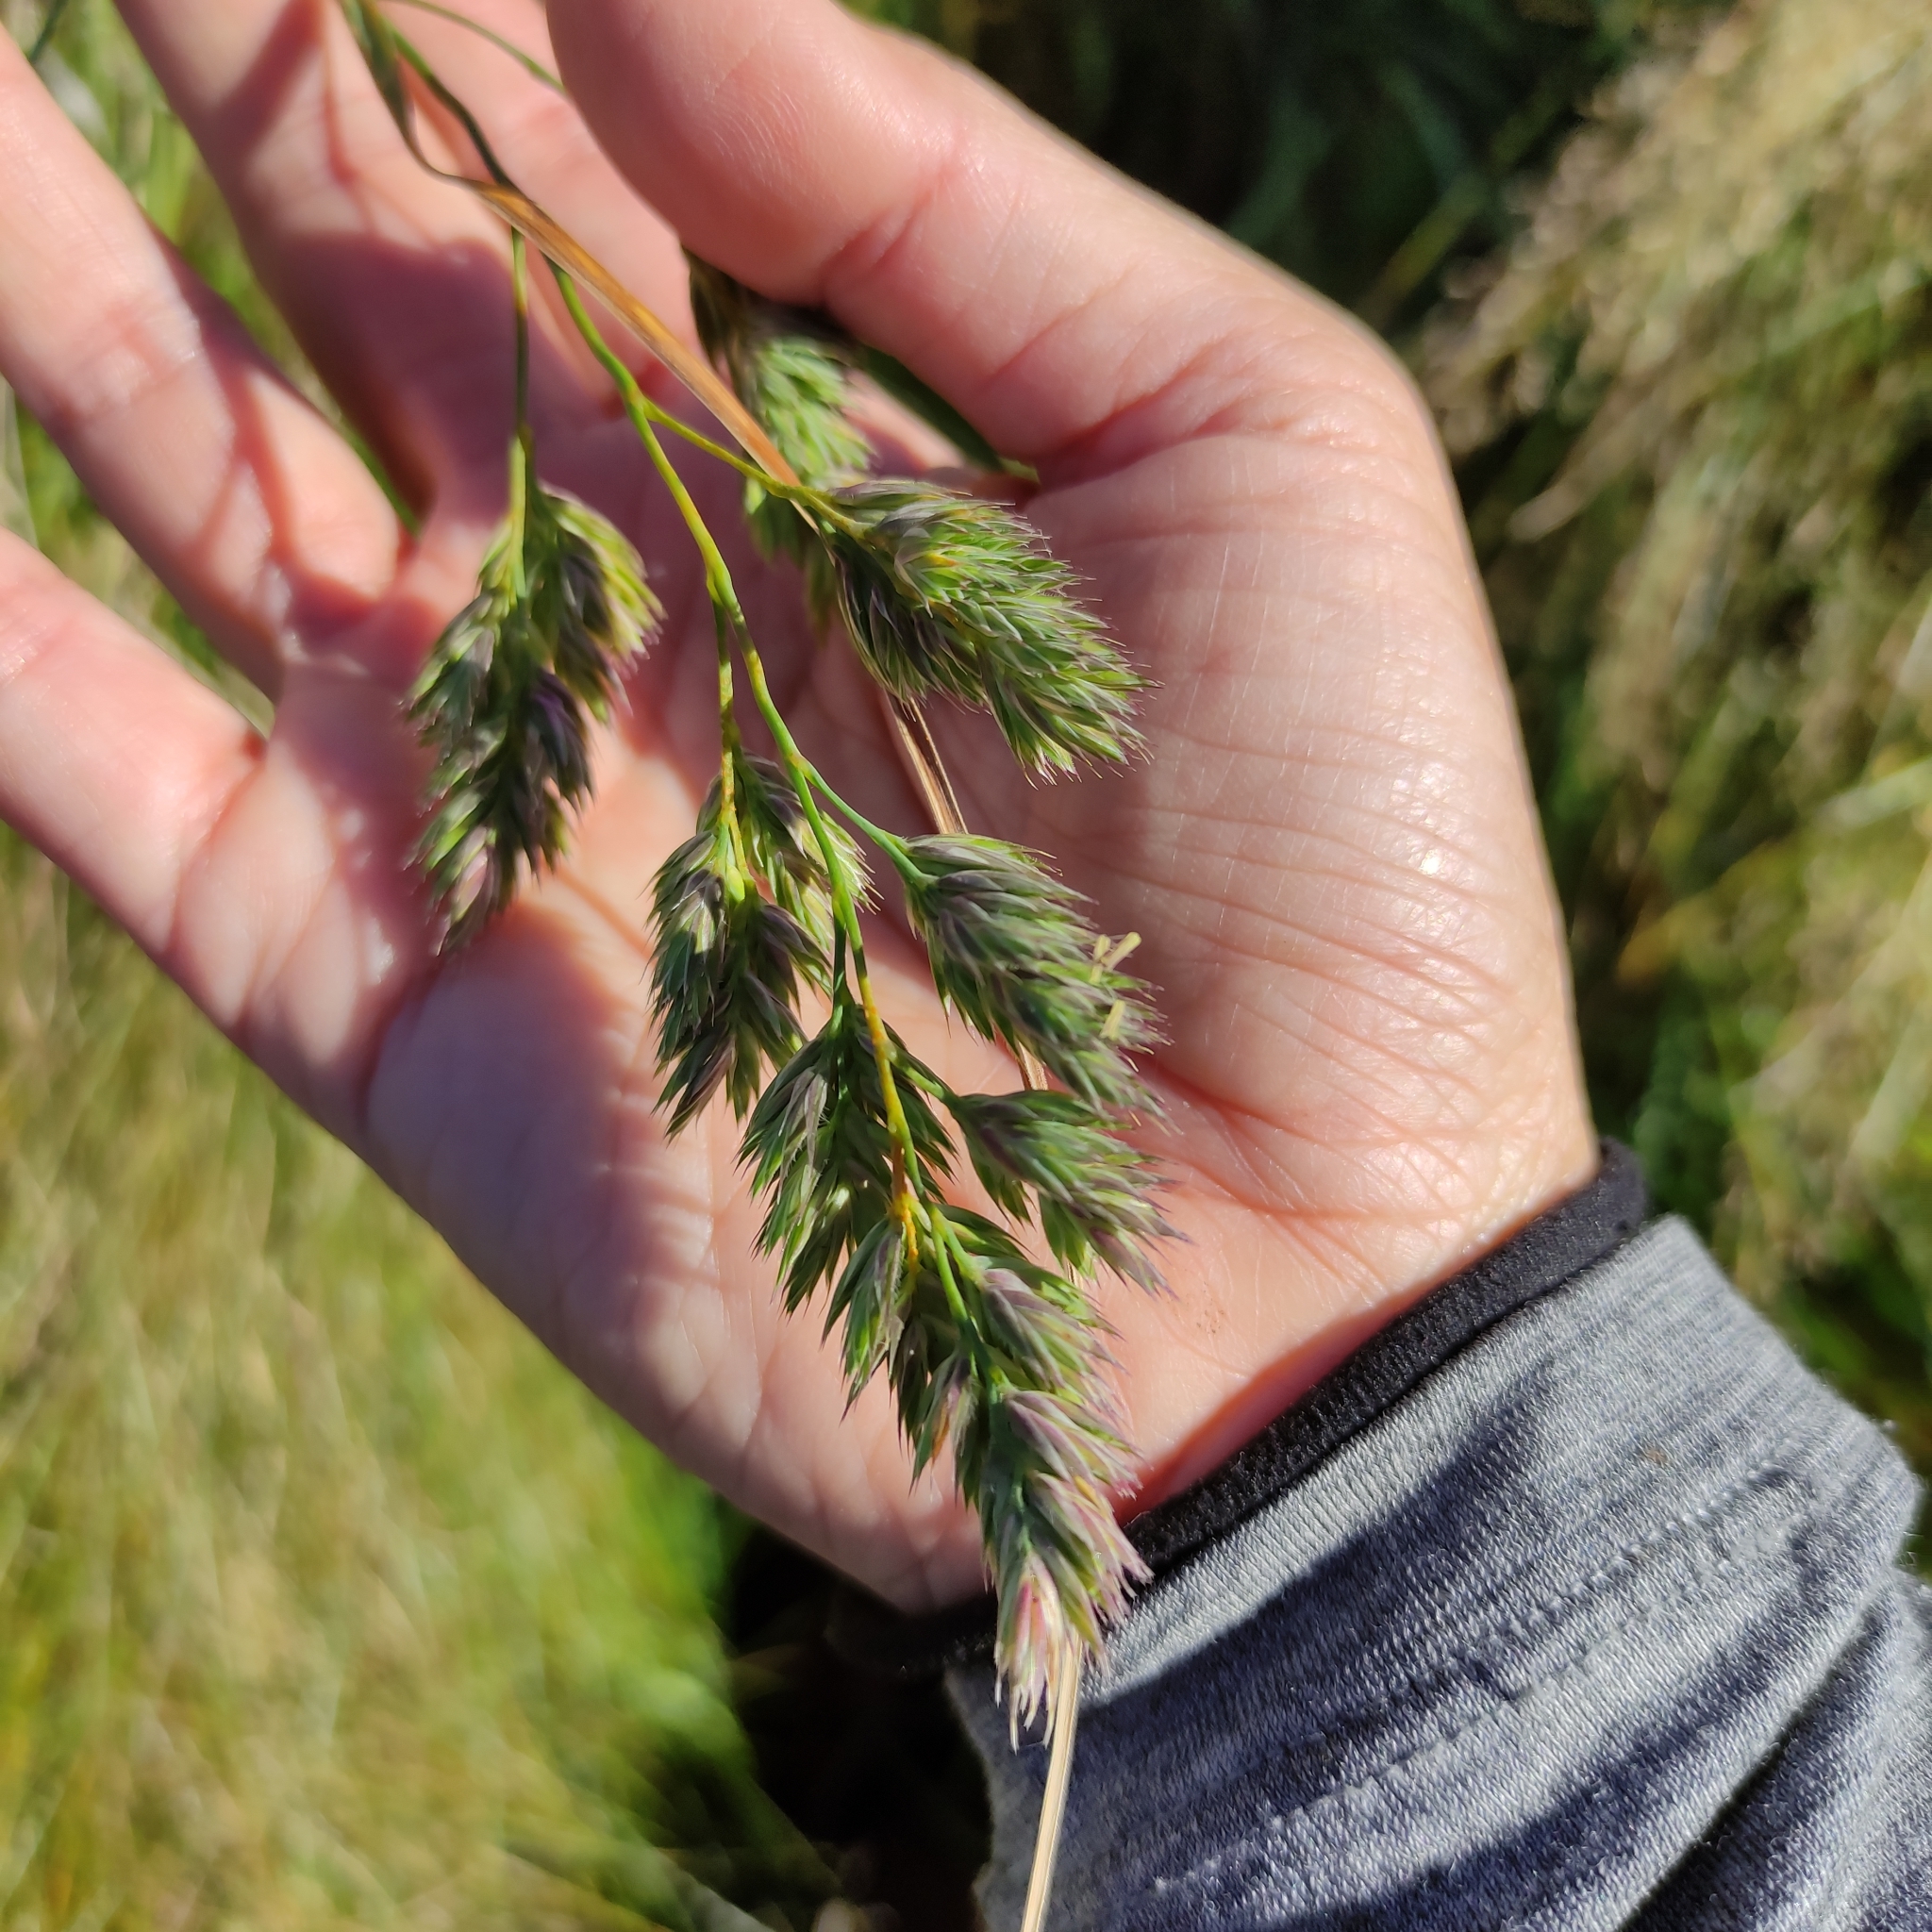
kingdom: Plantae
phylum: Tracheophyta
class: Liliopsida
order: Poales
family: Poaceae
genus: Dactylis
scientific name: Dactylis glomerata
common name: Orchardgrass
